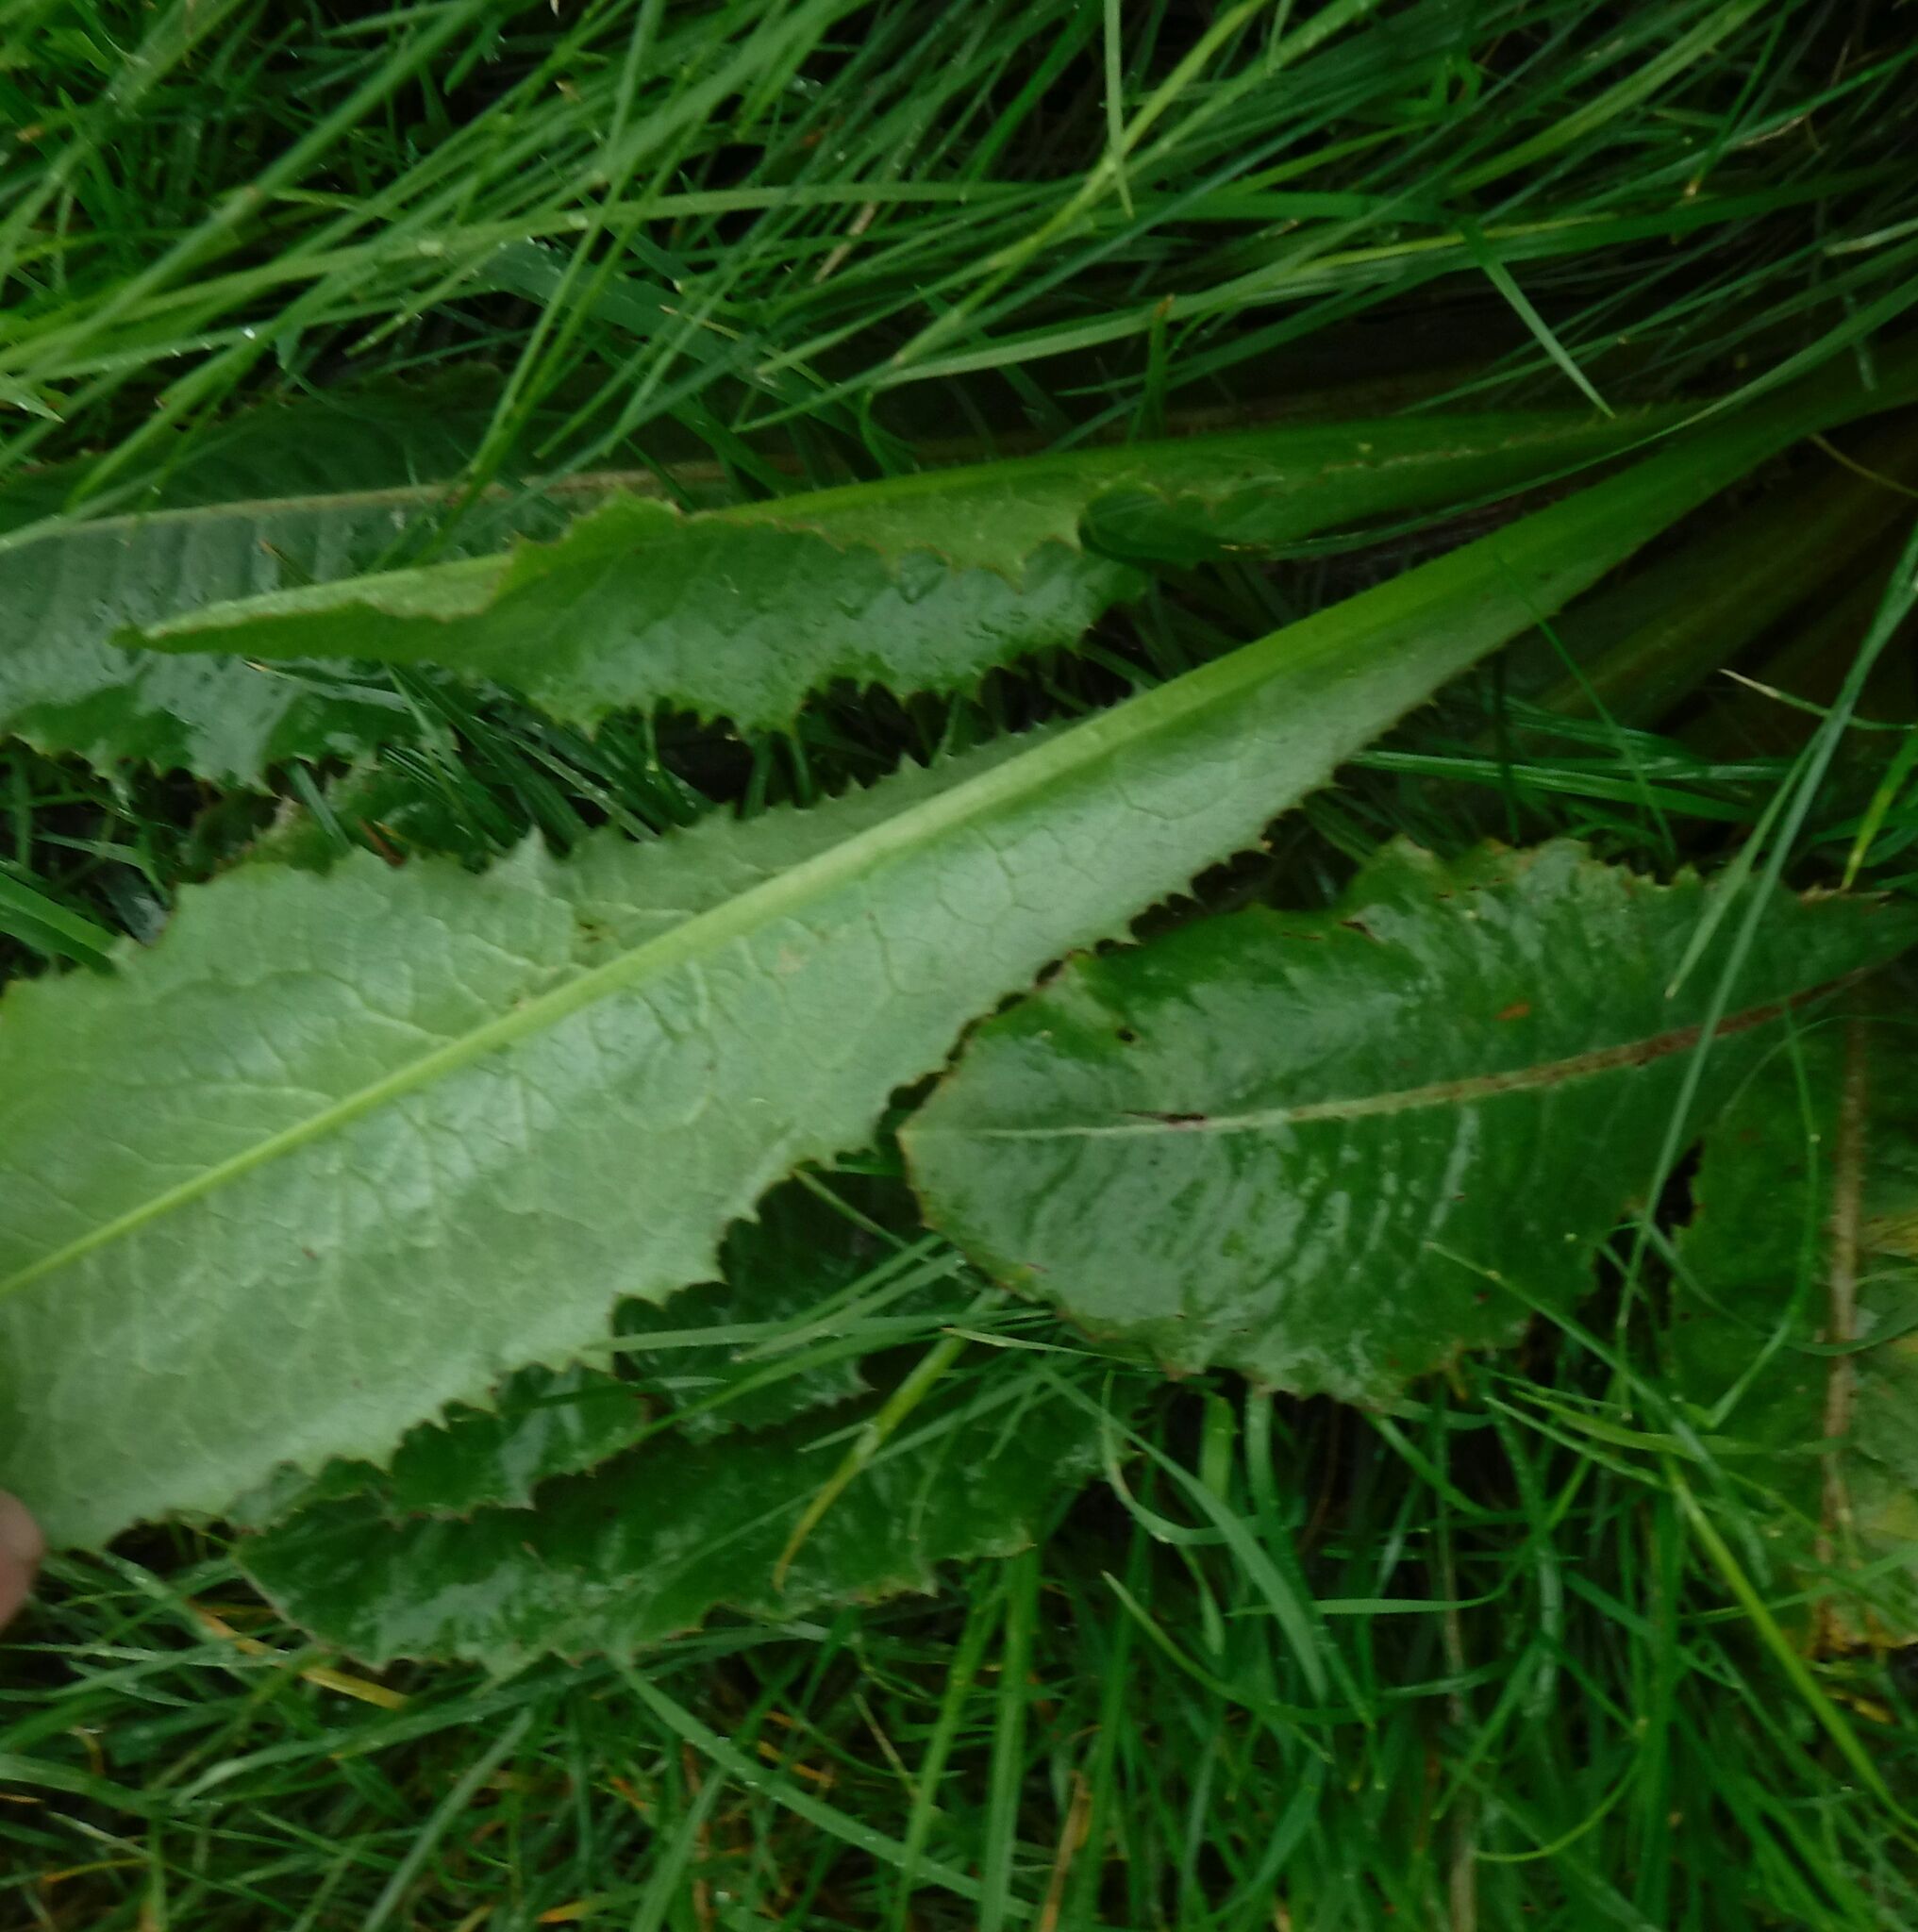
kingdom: Plantae
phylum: Tracheophyta
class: Magnoliopsida
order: Asterales
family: Asteraceae
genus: Lactuca
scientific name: Lactuca virosa
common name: Great lettuce
